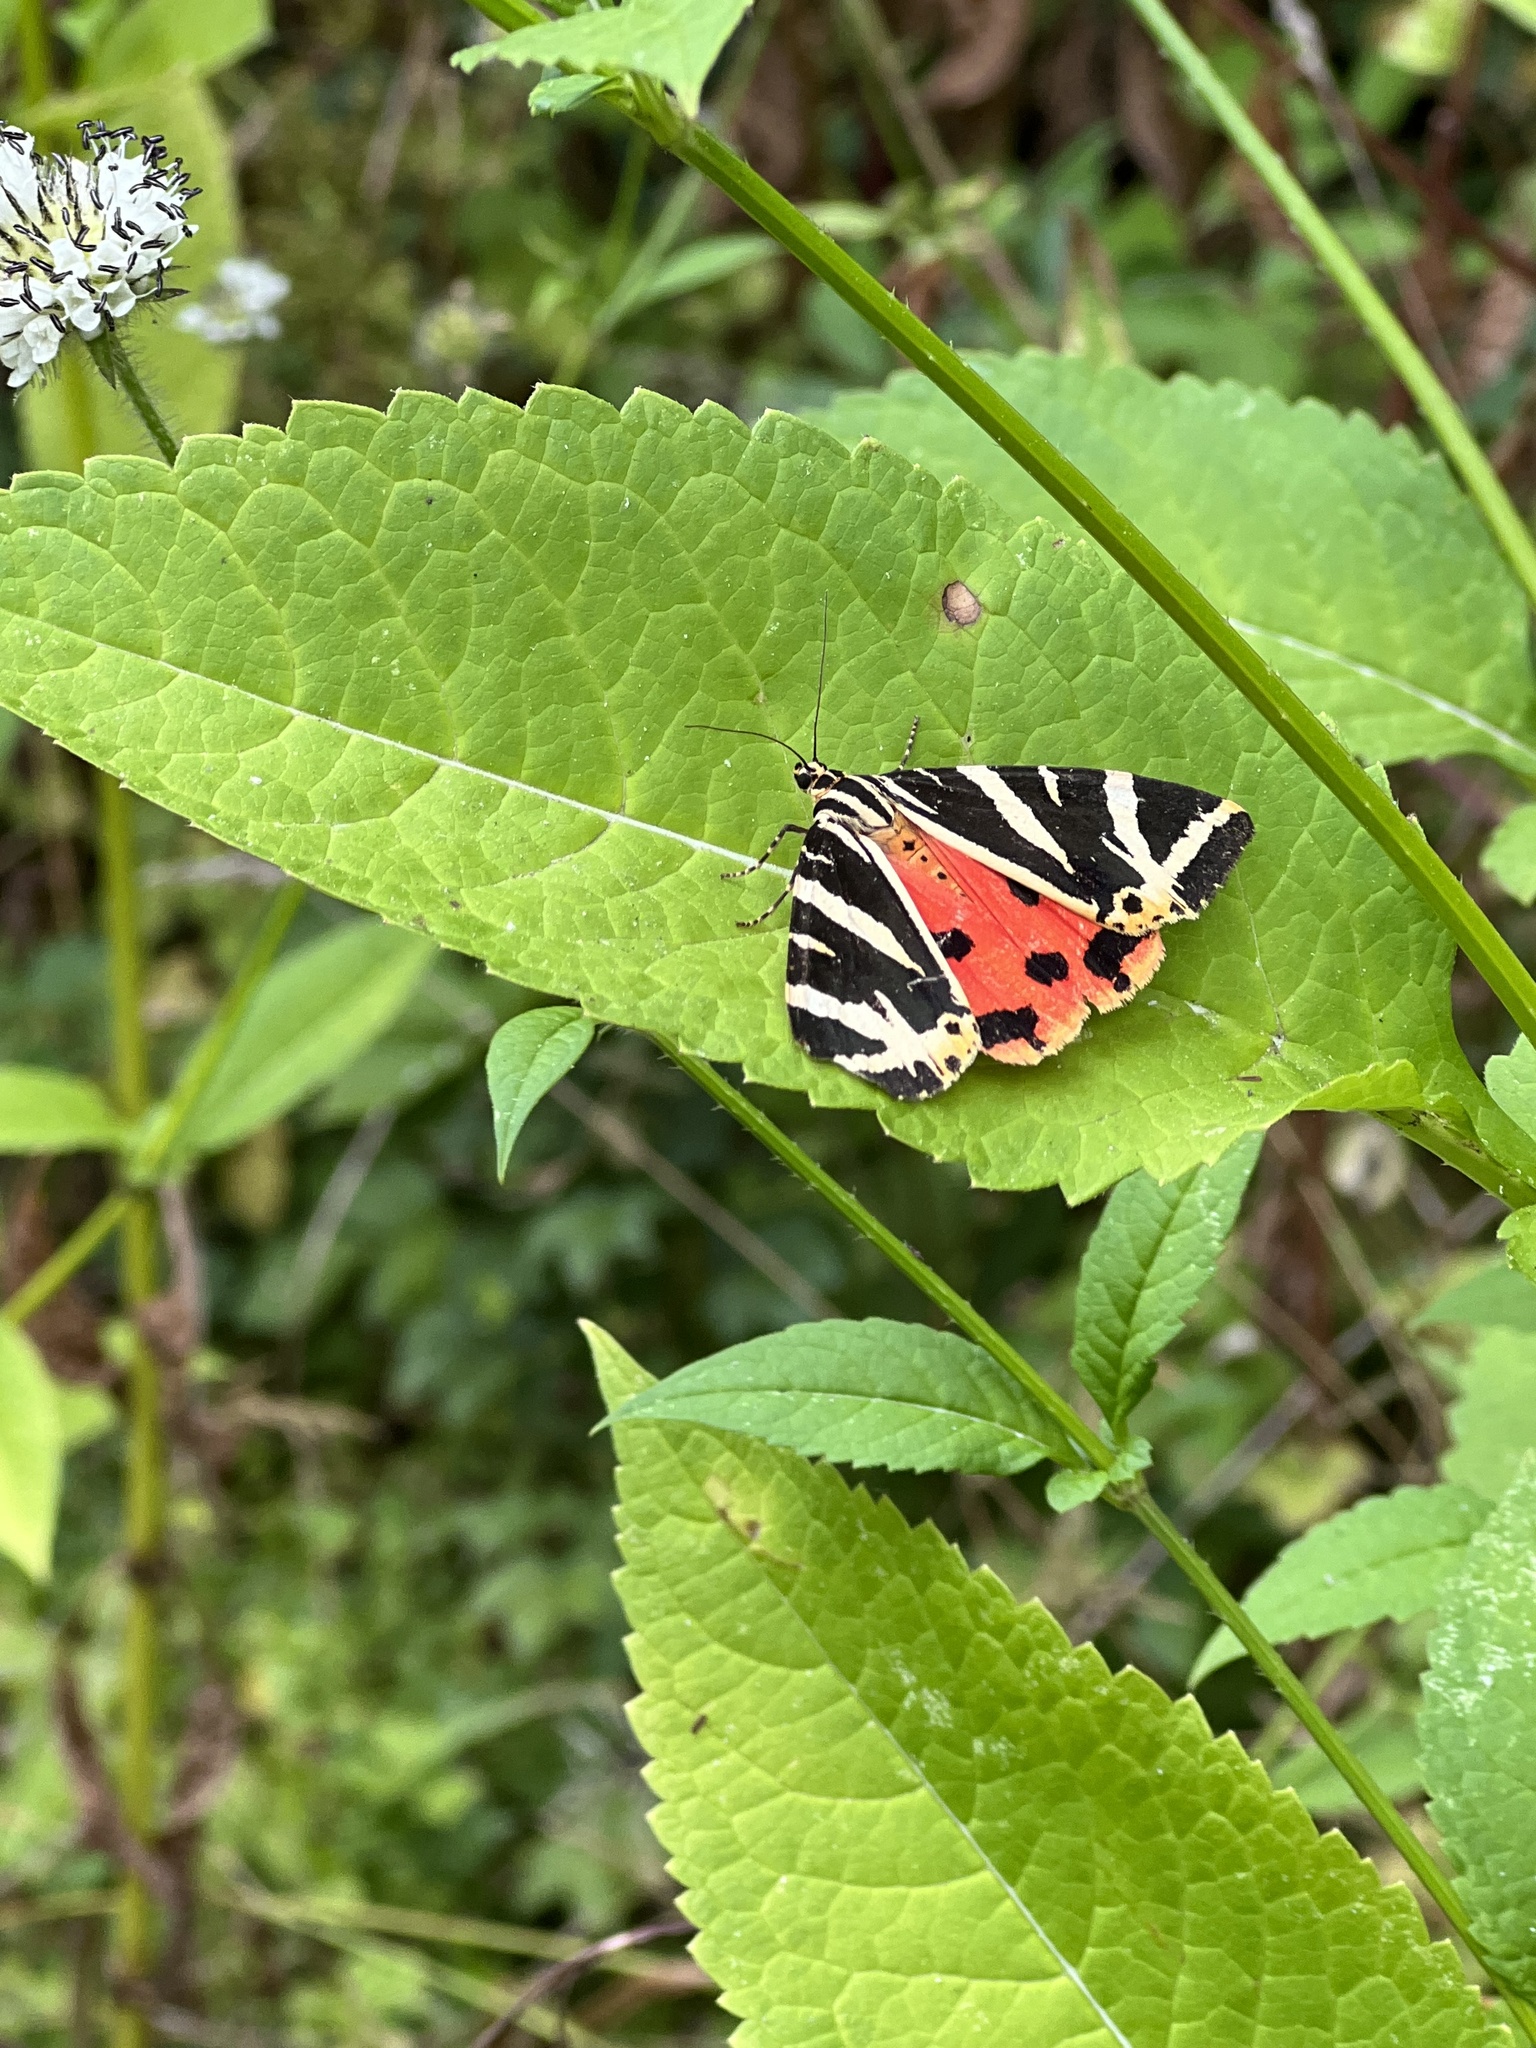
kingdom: Animalia
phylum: Arthropoda
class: Insecta
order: Lepidoptera
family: Erebidae
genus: Euplagia
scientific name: Euplagia quadripunctaria
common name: Jersey tiger
